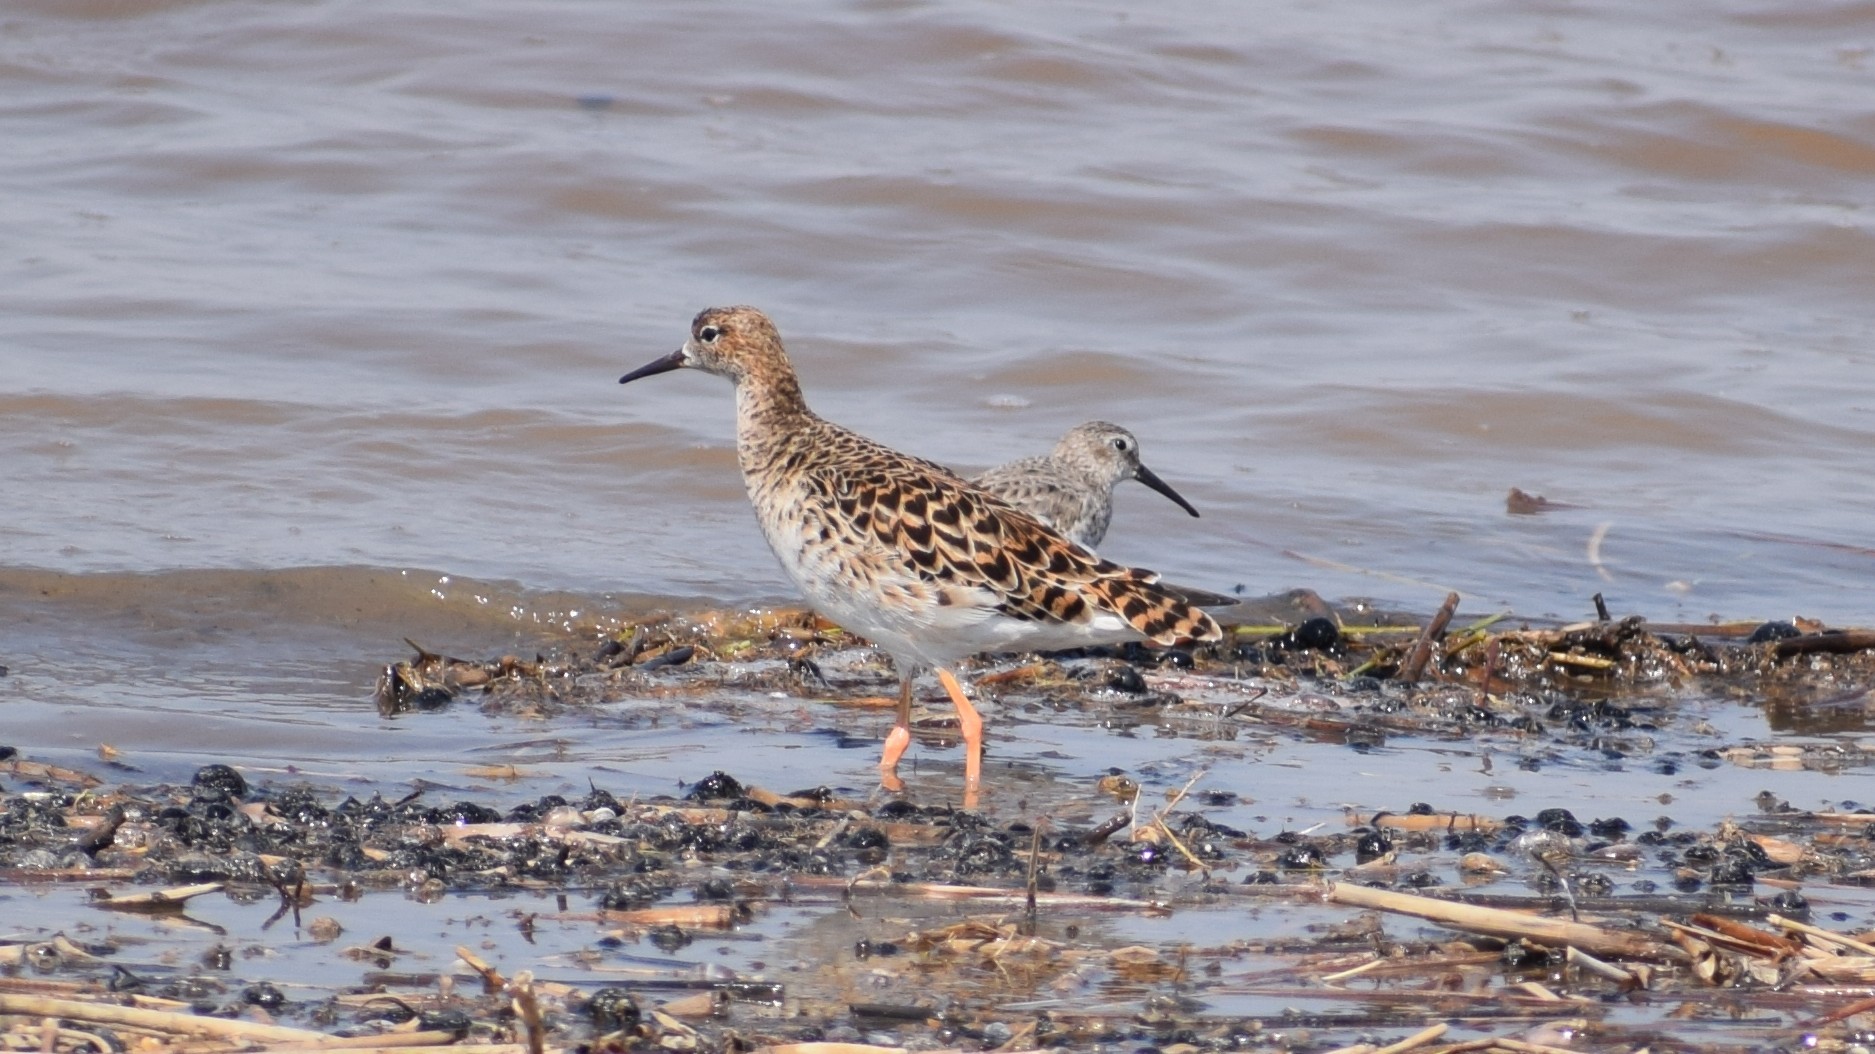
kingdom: Animalia
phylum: Chordata
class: Aves
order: Charadriiformes
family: Scolopacidae
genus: Calidris
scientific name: Calidris pugnax
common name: Ruff
